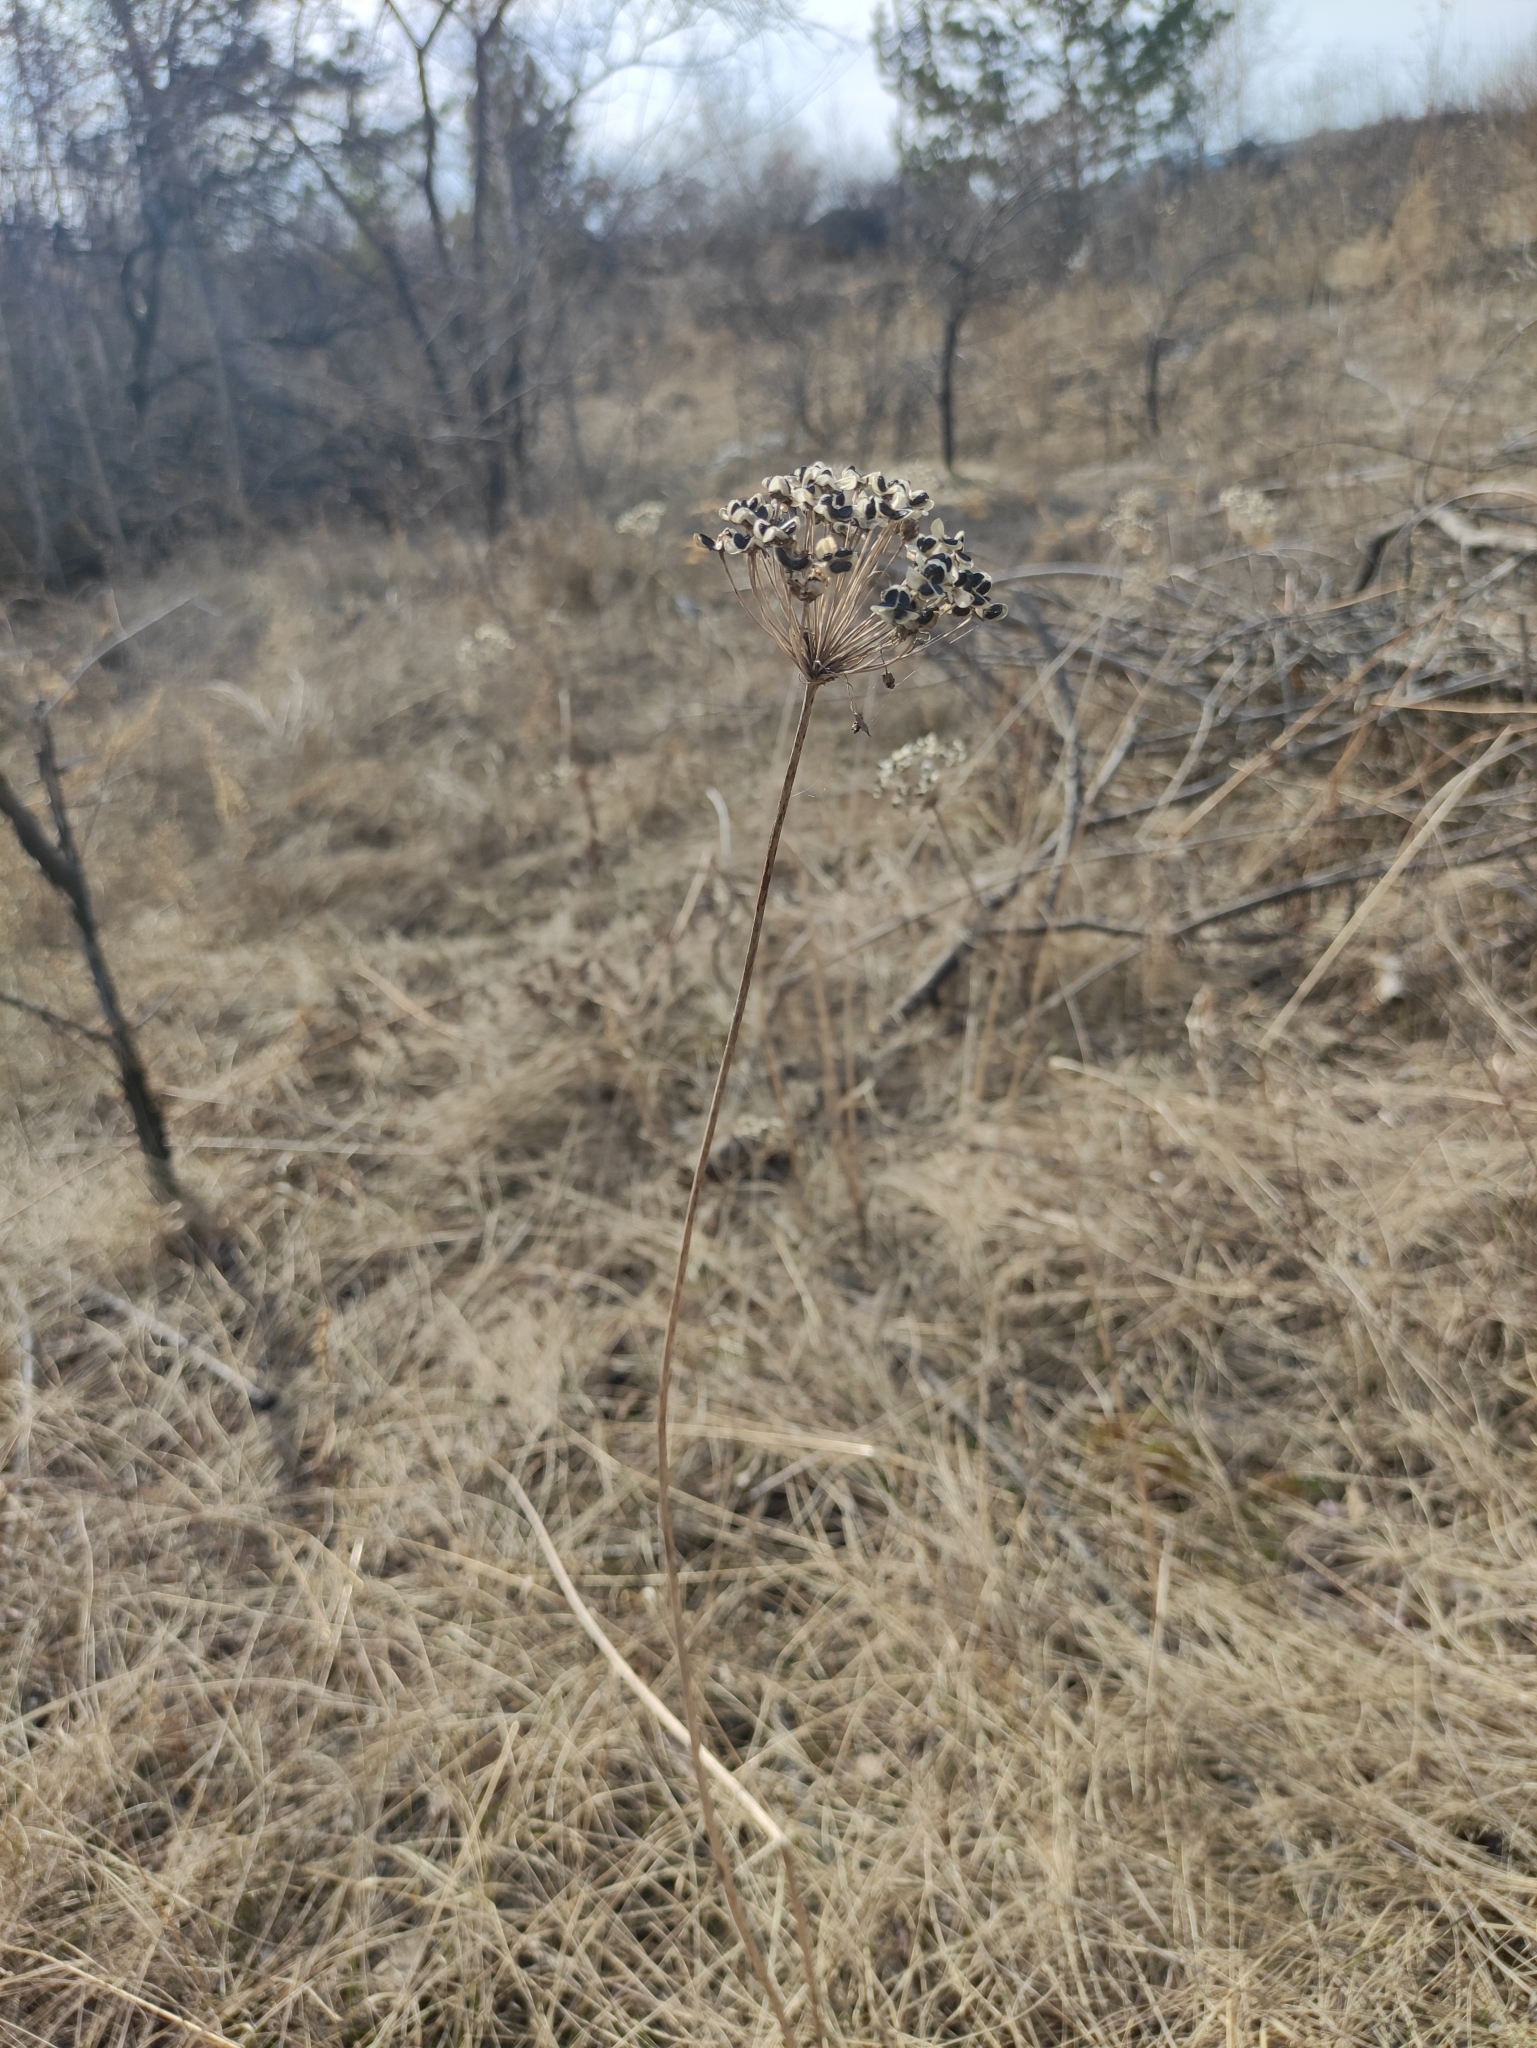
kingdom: Plantae
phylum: Tracheophyta
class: Liliopsida
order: Asparagales
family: Amaryllidaceae
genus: Allium
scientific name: Allium ramosum
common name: Fragrant garlic
